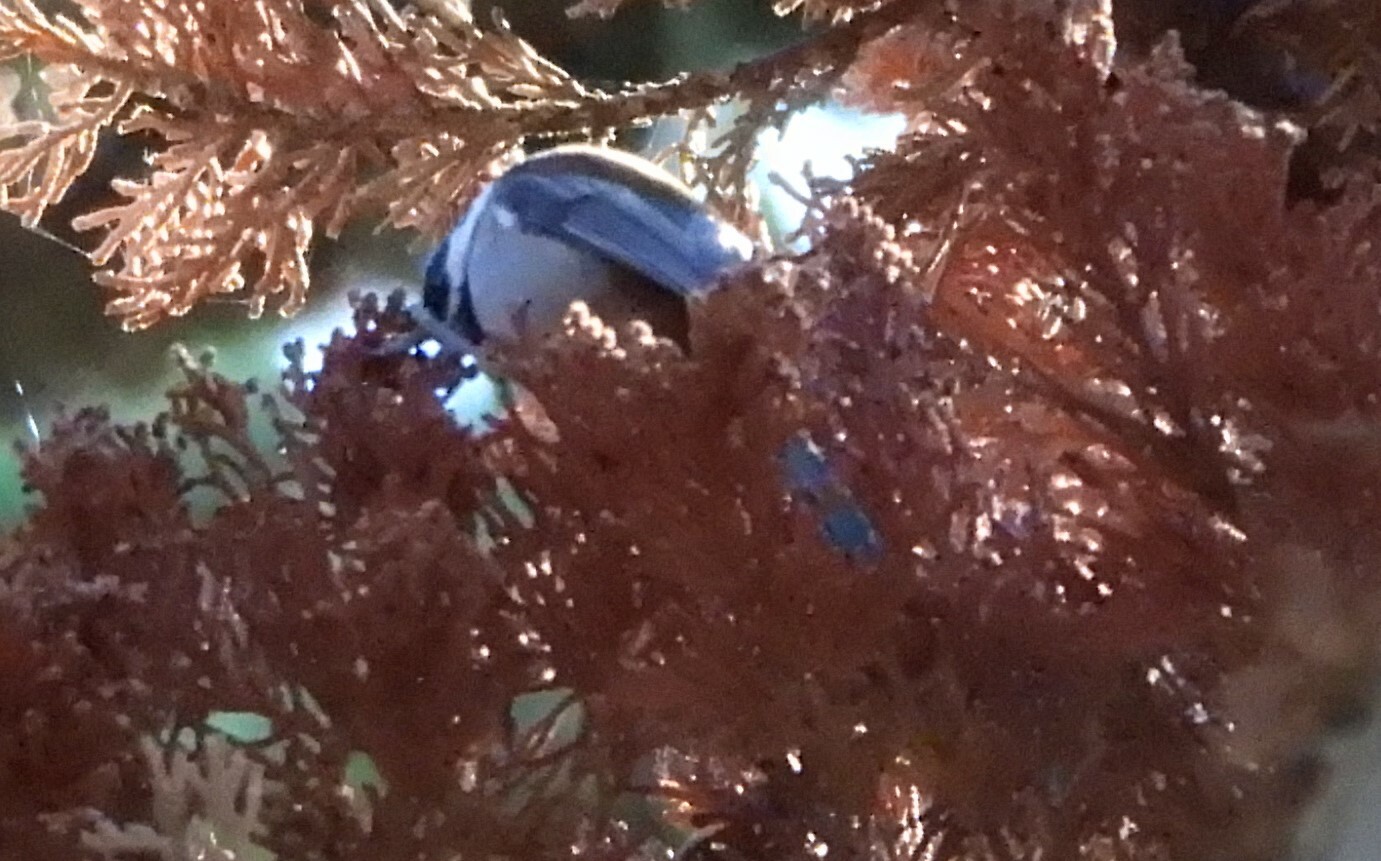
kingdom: Animalia
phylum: Chordata
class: Aves
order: Passeriformes
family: Paridae
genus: Poecile
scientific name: Poecile rufescens
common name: Chestnut-backed chickadee
